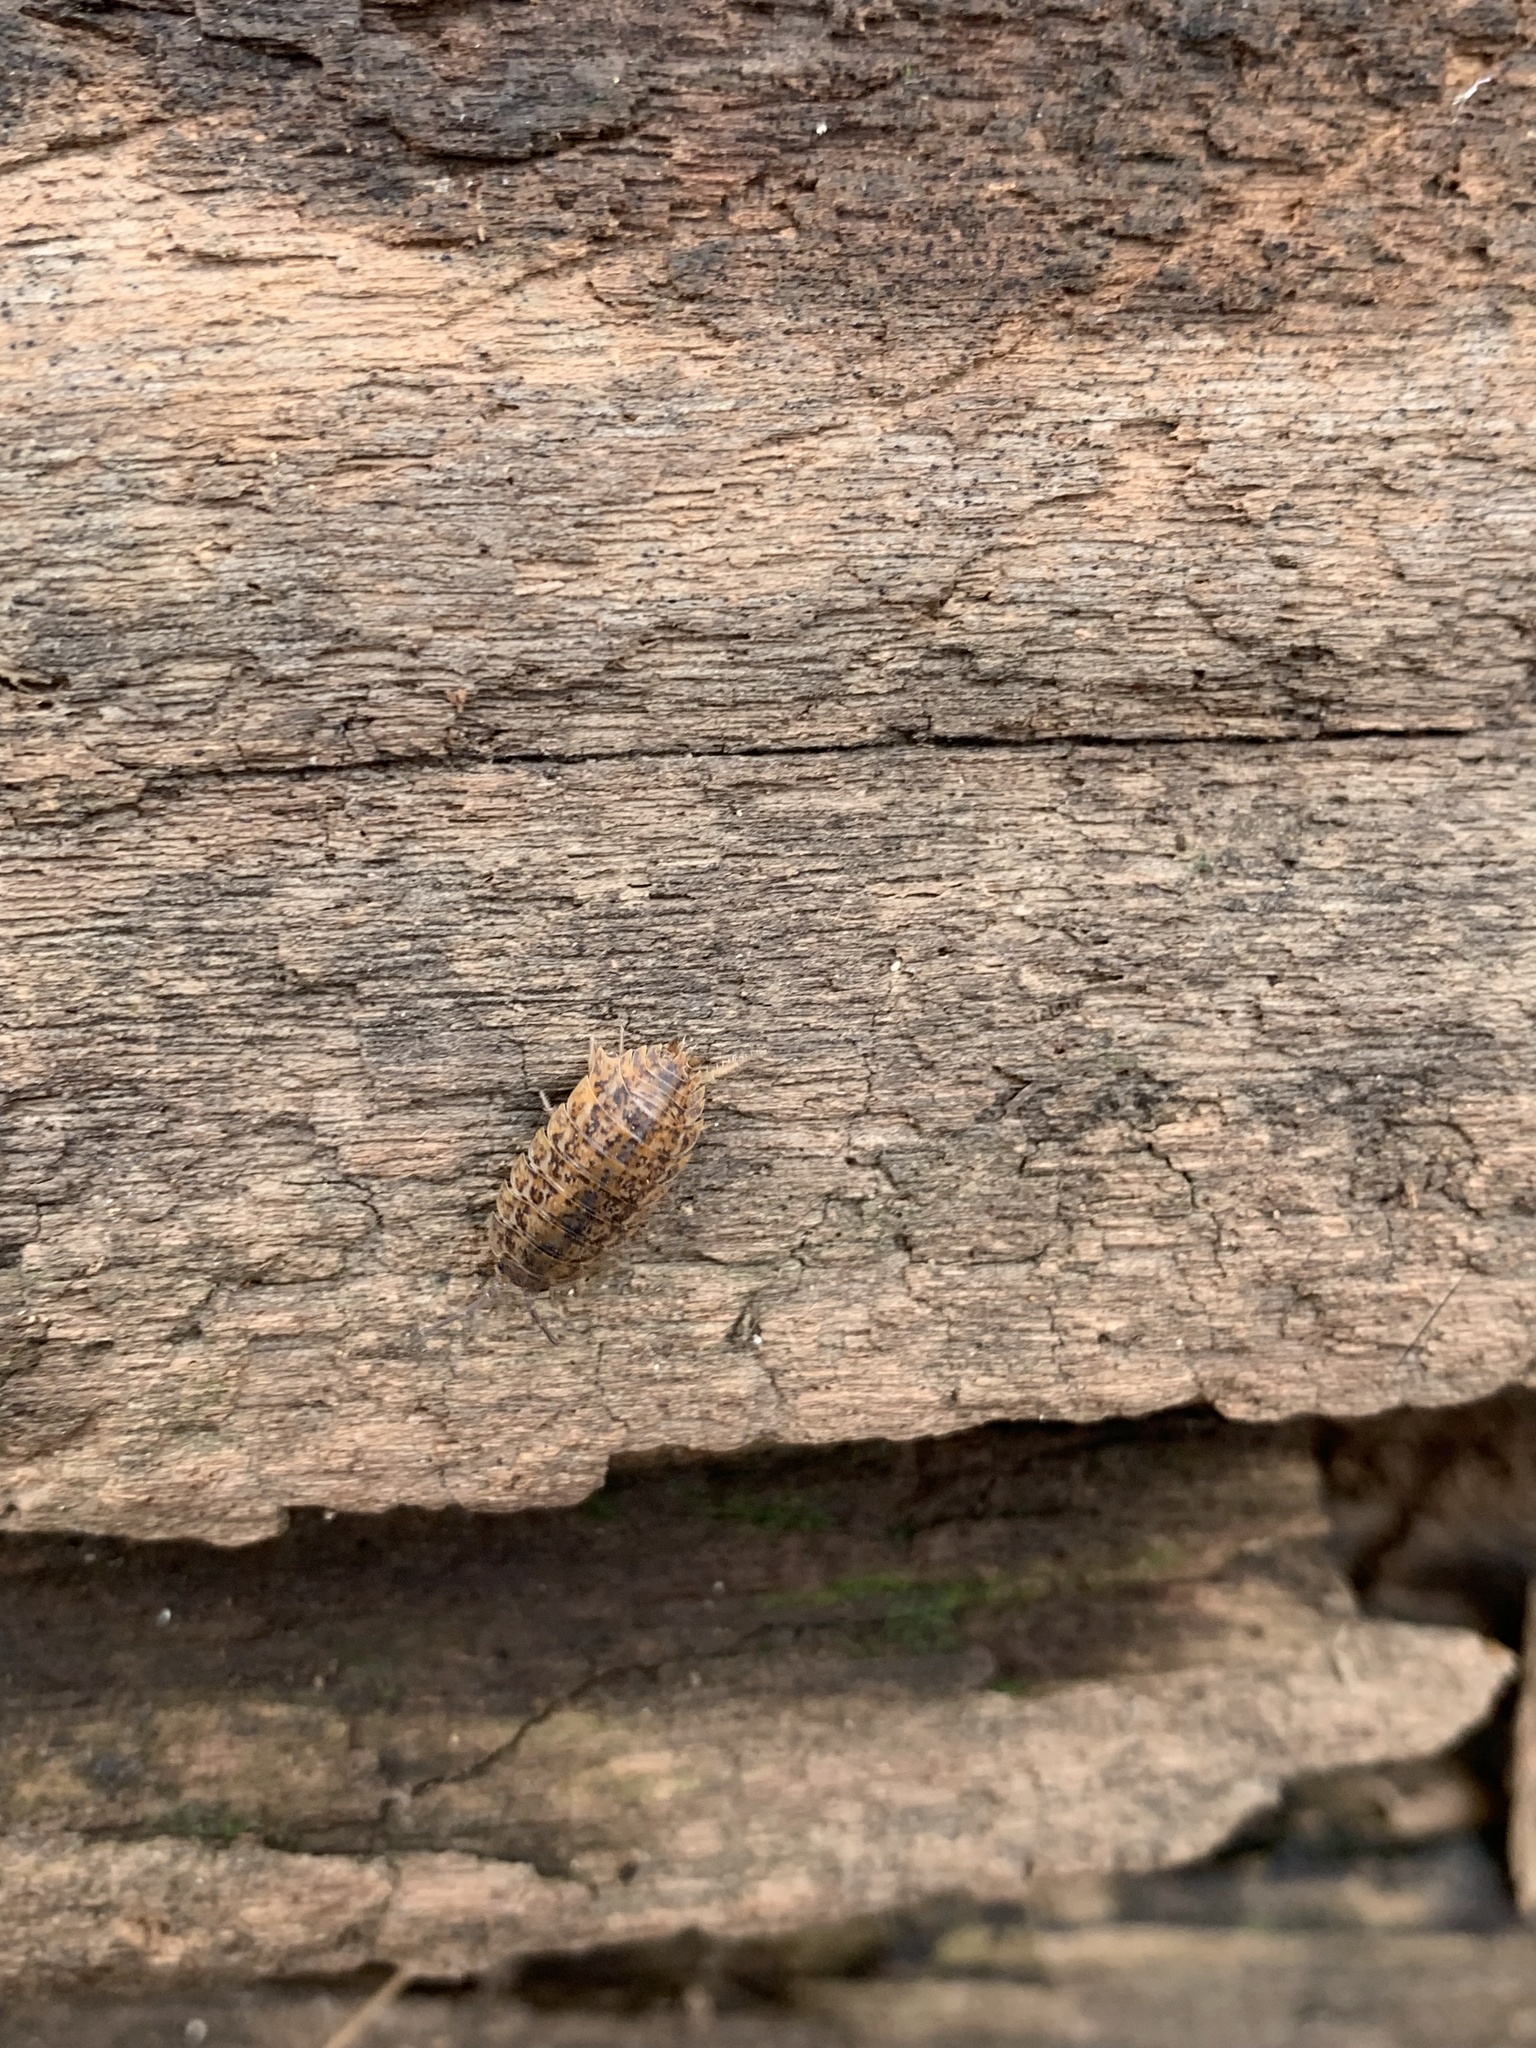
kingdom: Animalia
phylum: Arthropoda
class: Malacostraca
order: Isopoda
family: Trachelipodidae
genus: Trachelipus
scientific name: Trachelipus rathkii
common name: Isopod
